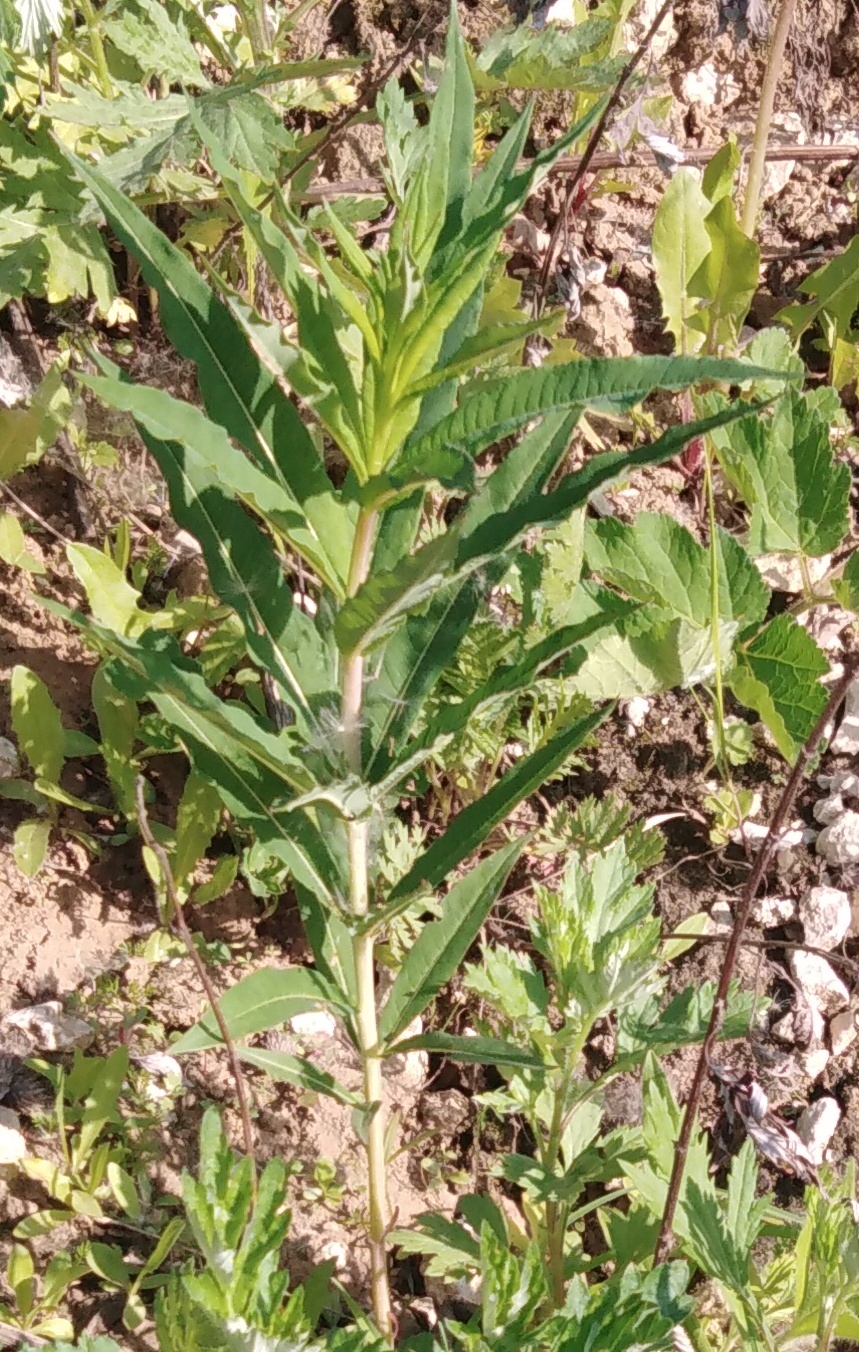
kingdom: Plantae
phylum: Tracheophyta
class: Magnoliopsida
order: Myrtales
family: Onagraceae
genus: Chamaenerion
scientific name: Chamaenerion angustifolium
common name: Fireweed
